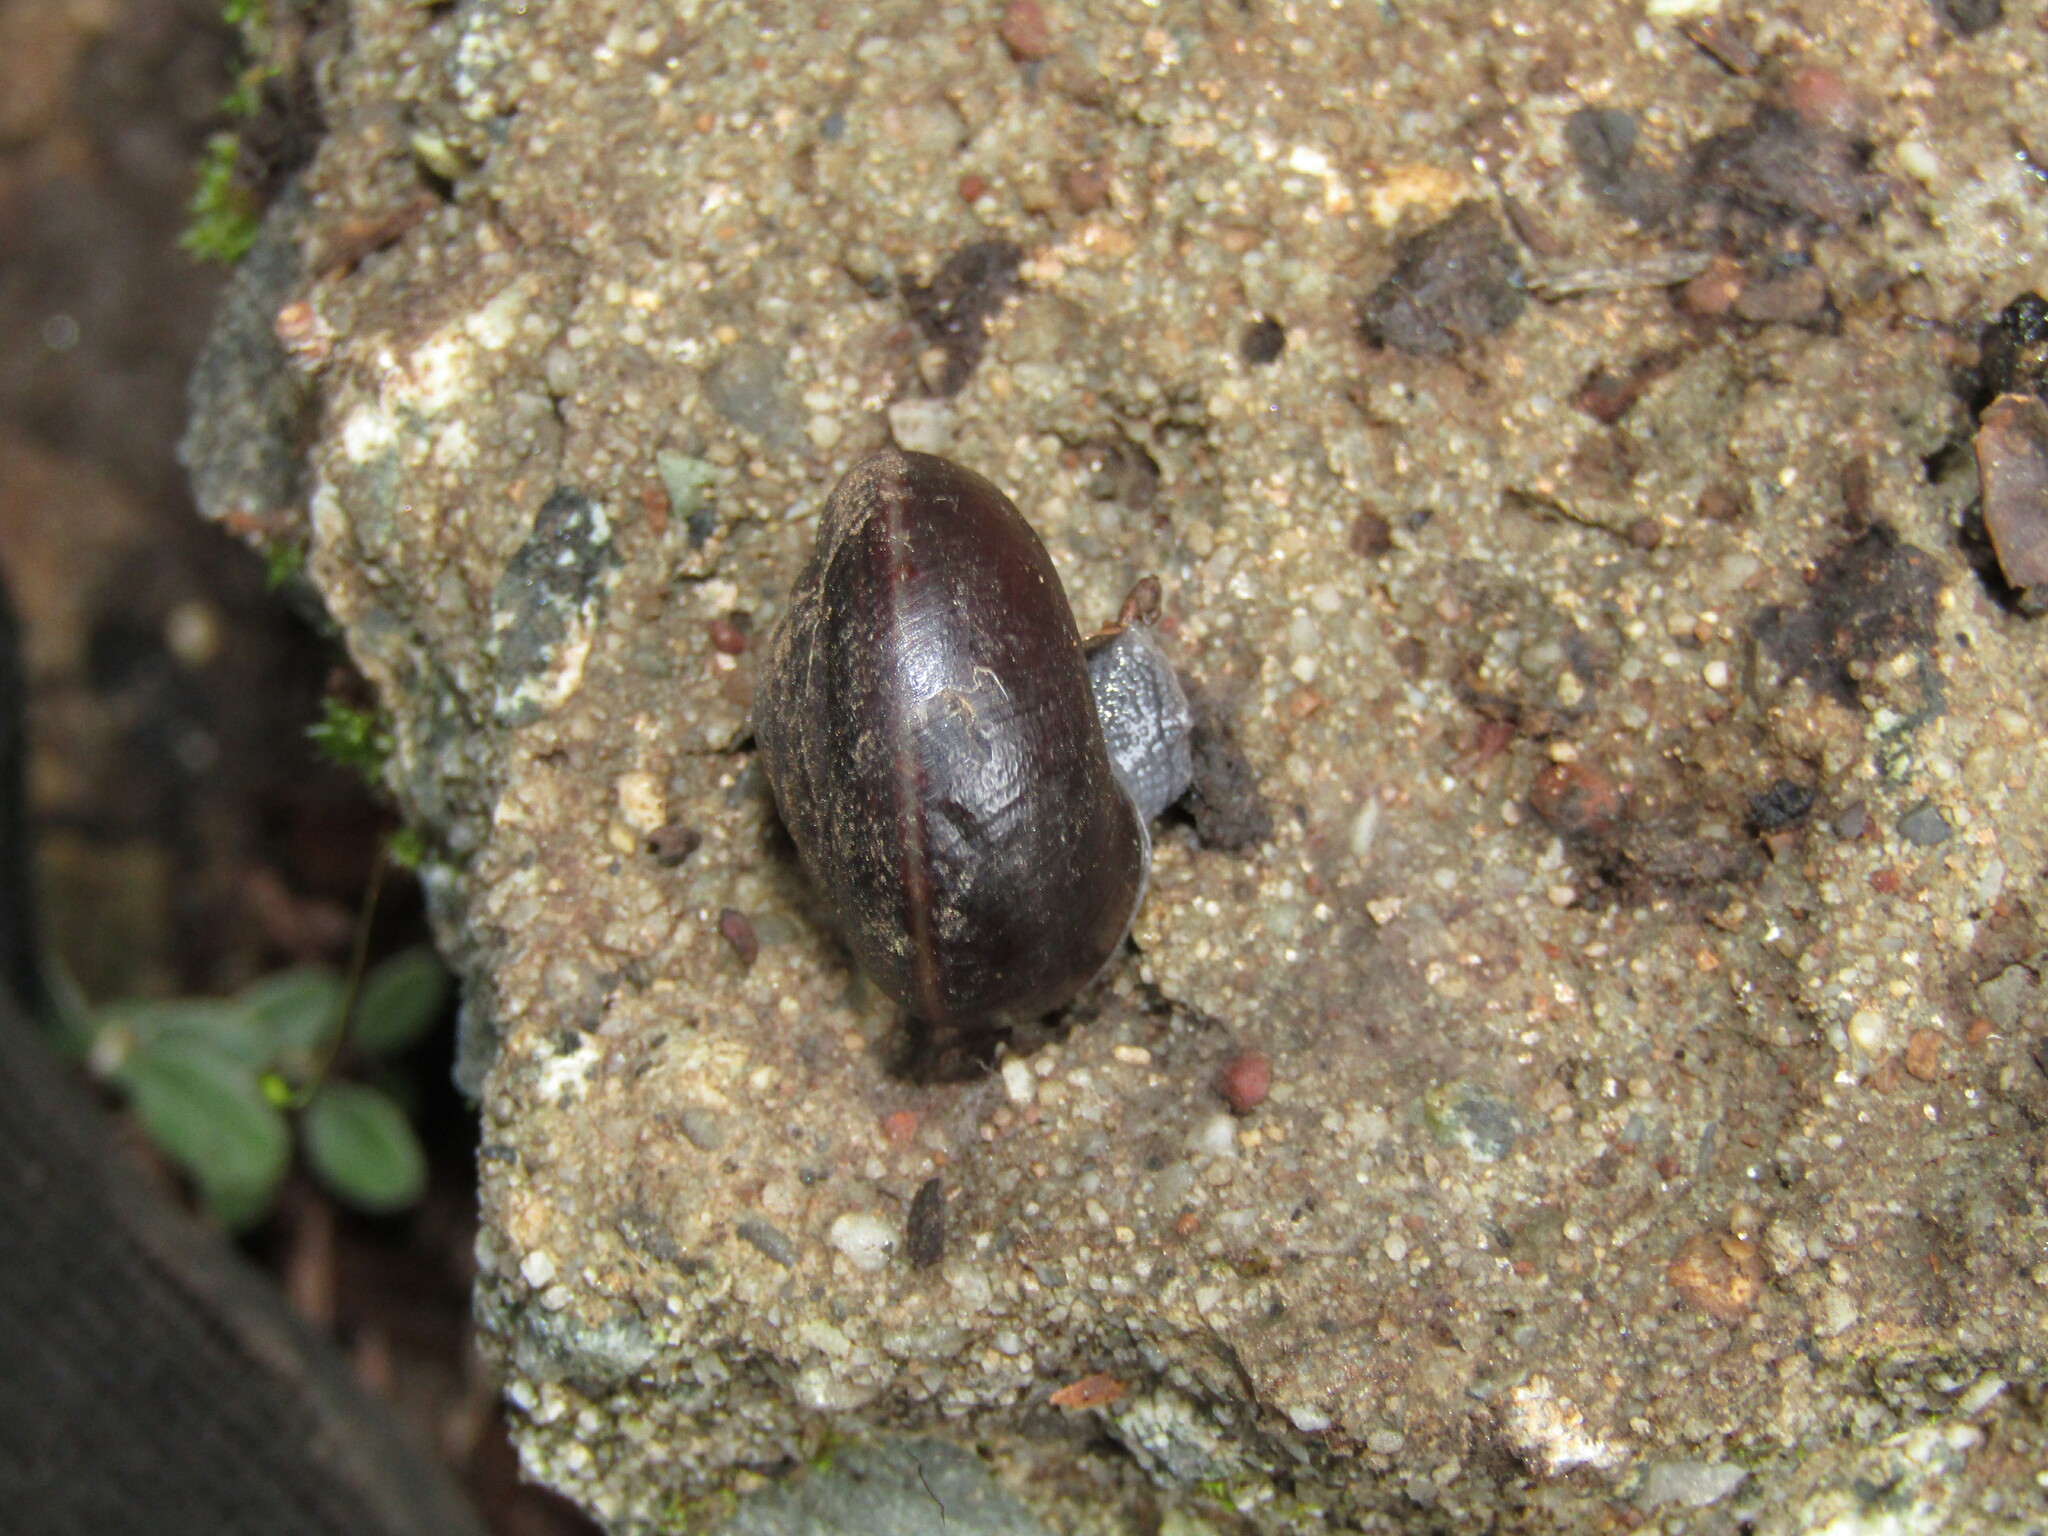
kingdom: Animalia
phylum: Mollusca
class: Gastropoda
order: Stylommatophora
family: Xanthonychidae
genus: Helminthoglypta
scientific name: Helminthoglypta sequoicola
